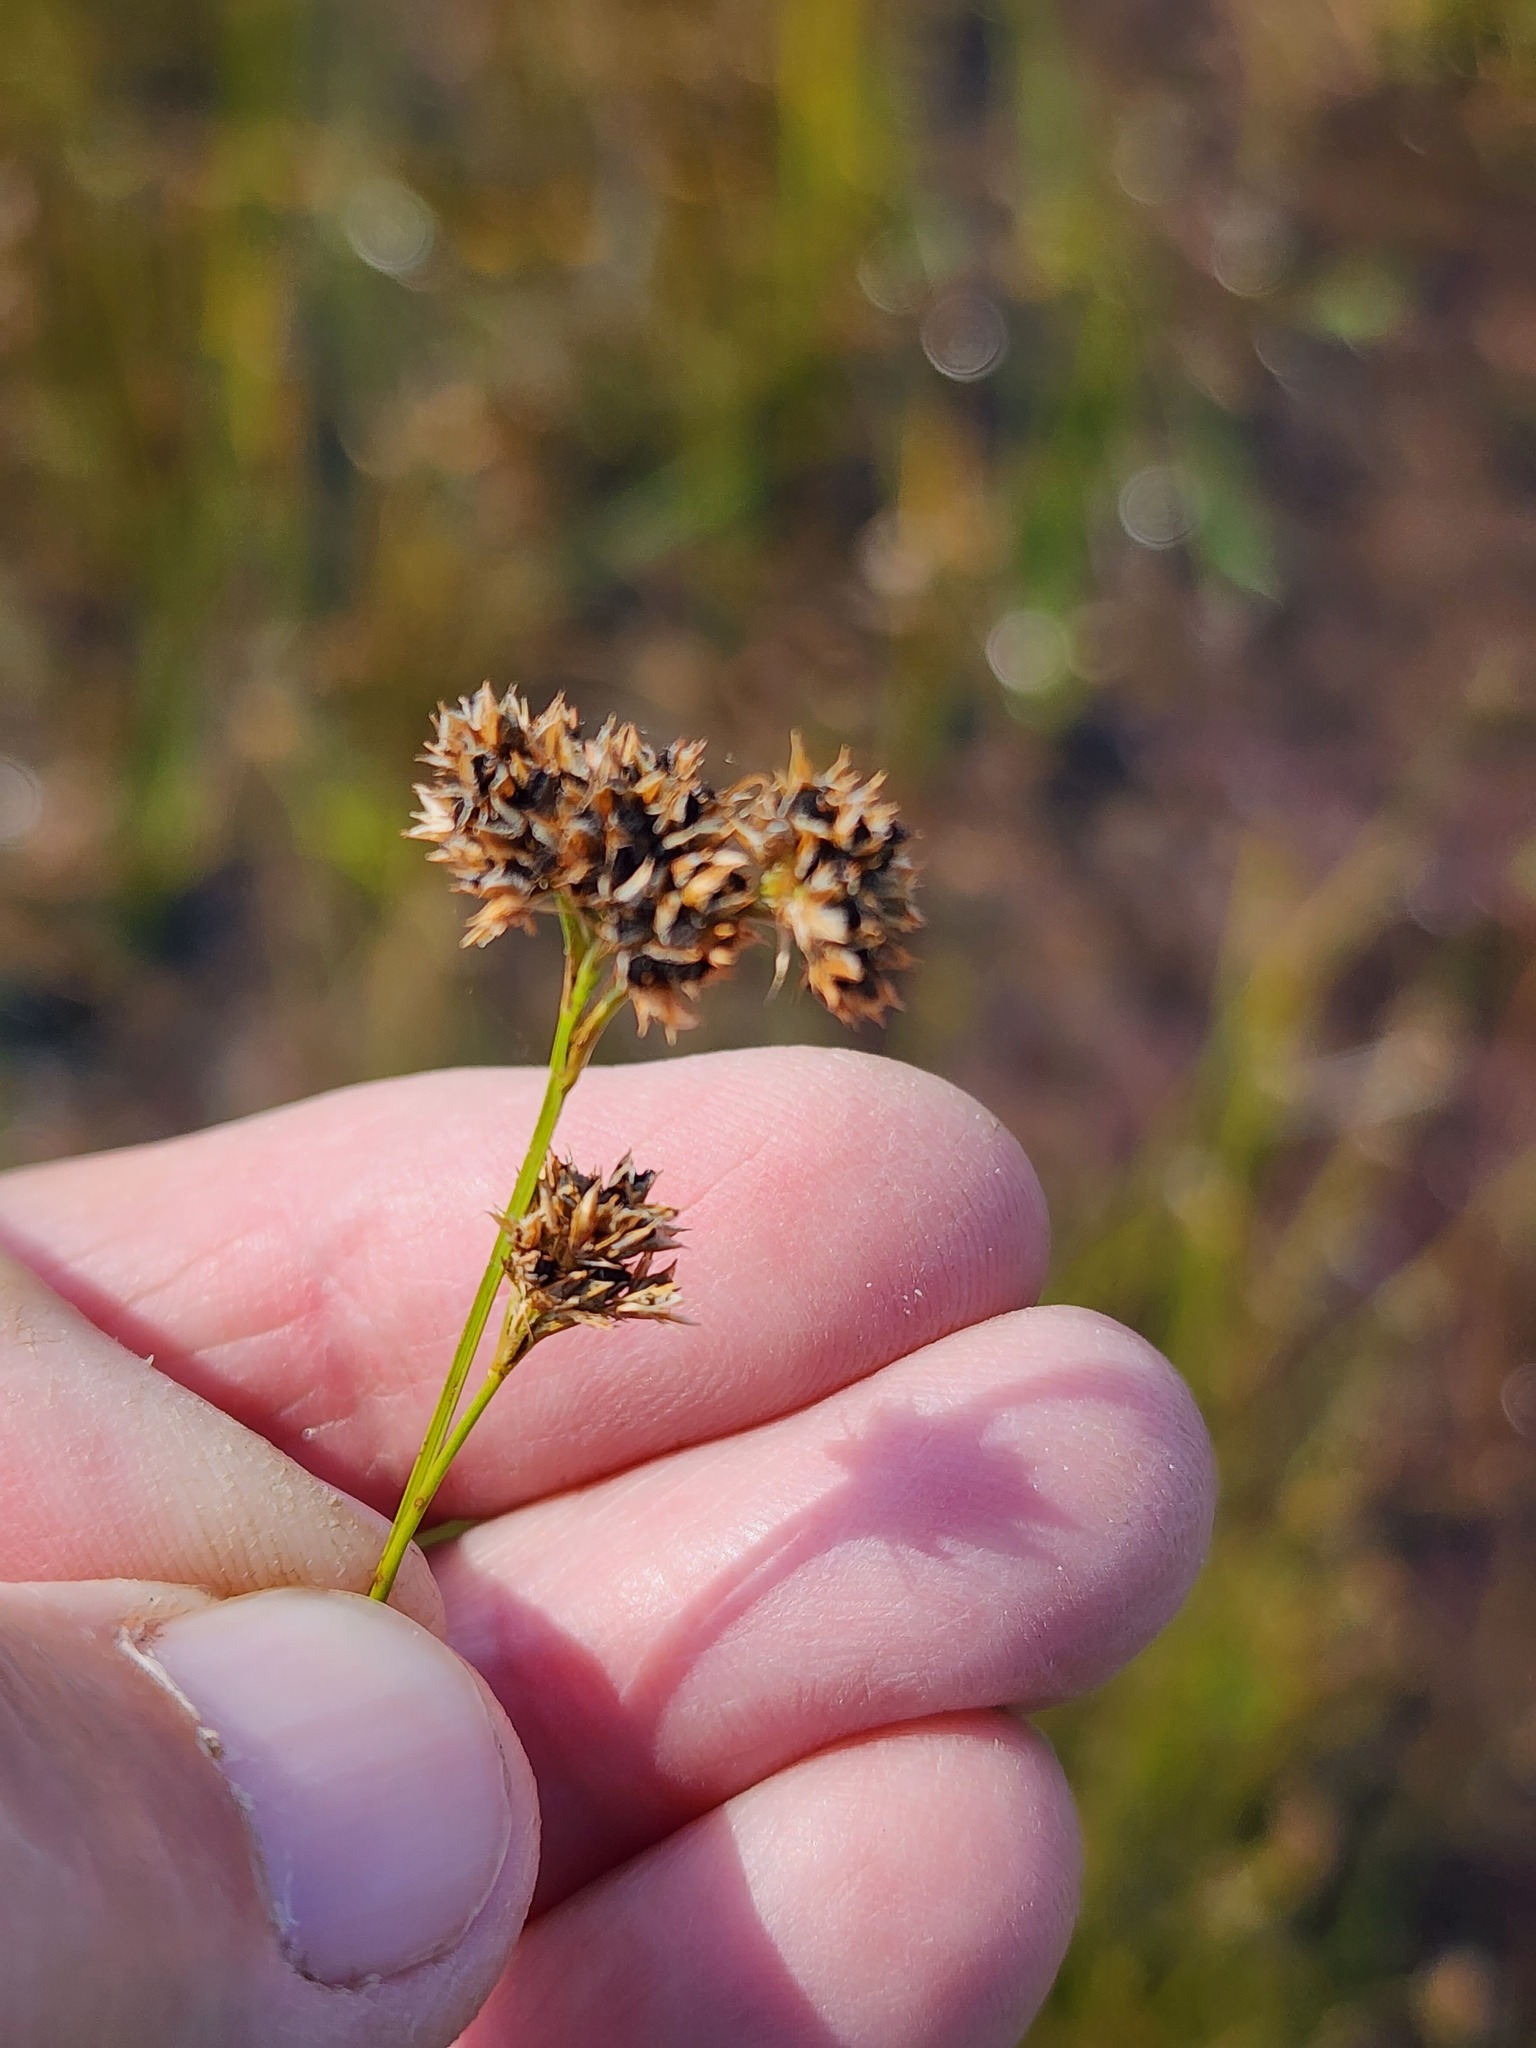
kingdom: Plantae
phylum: Tracheophyta
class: Liliopsida
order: Poales
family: Cyperaceae
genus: Rhynchospora
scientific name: Rhynchospora fusca
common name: Brown beak-sedge
